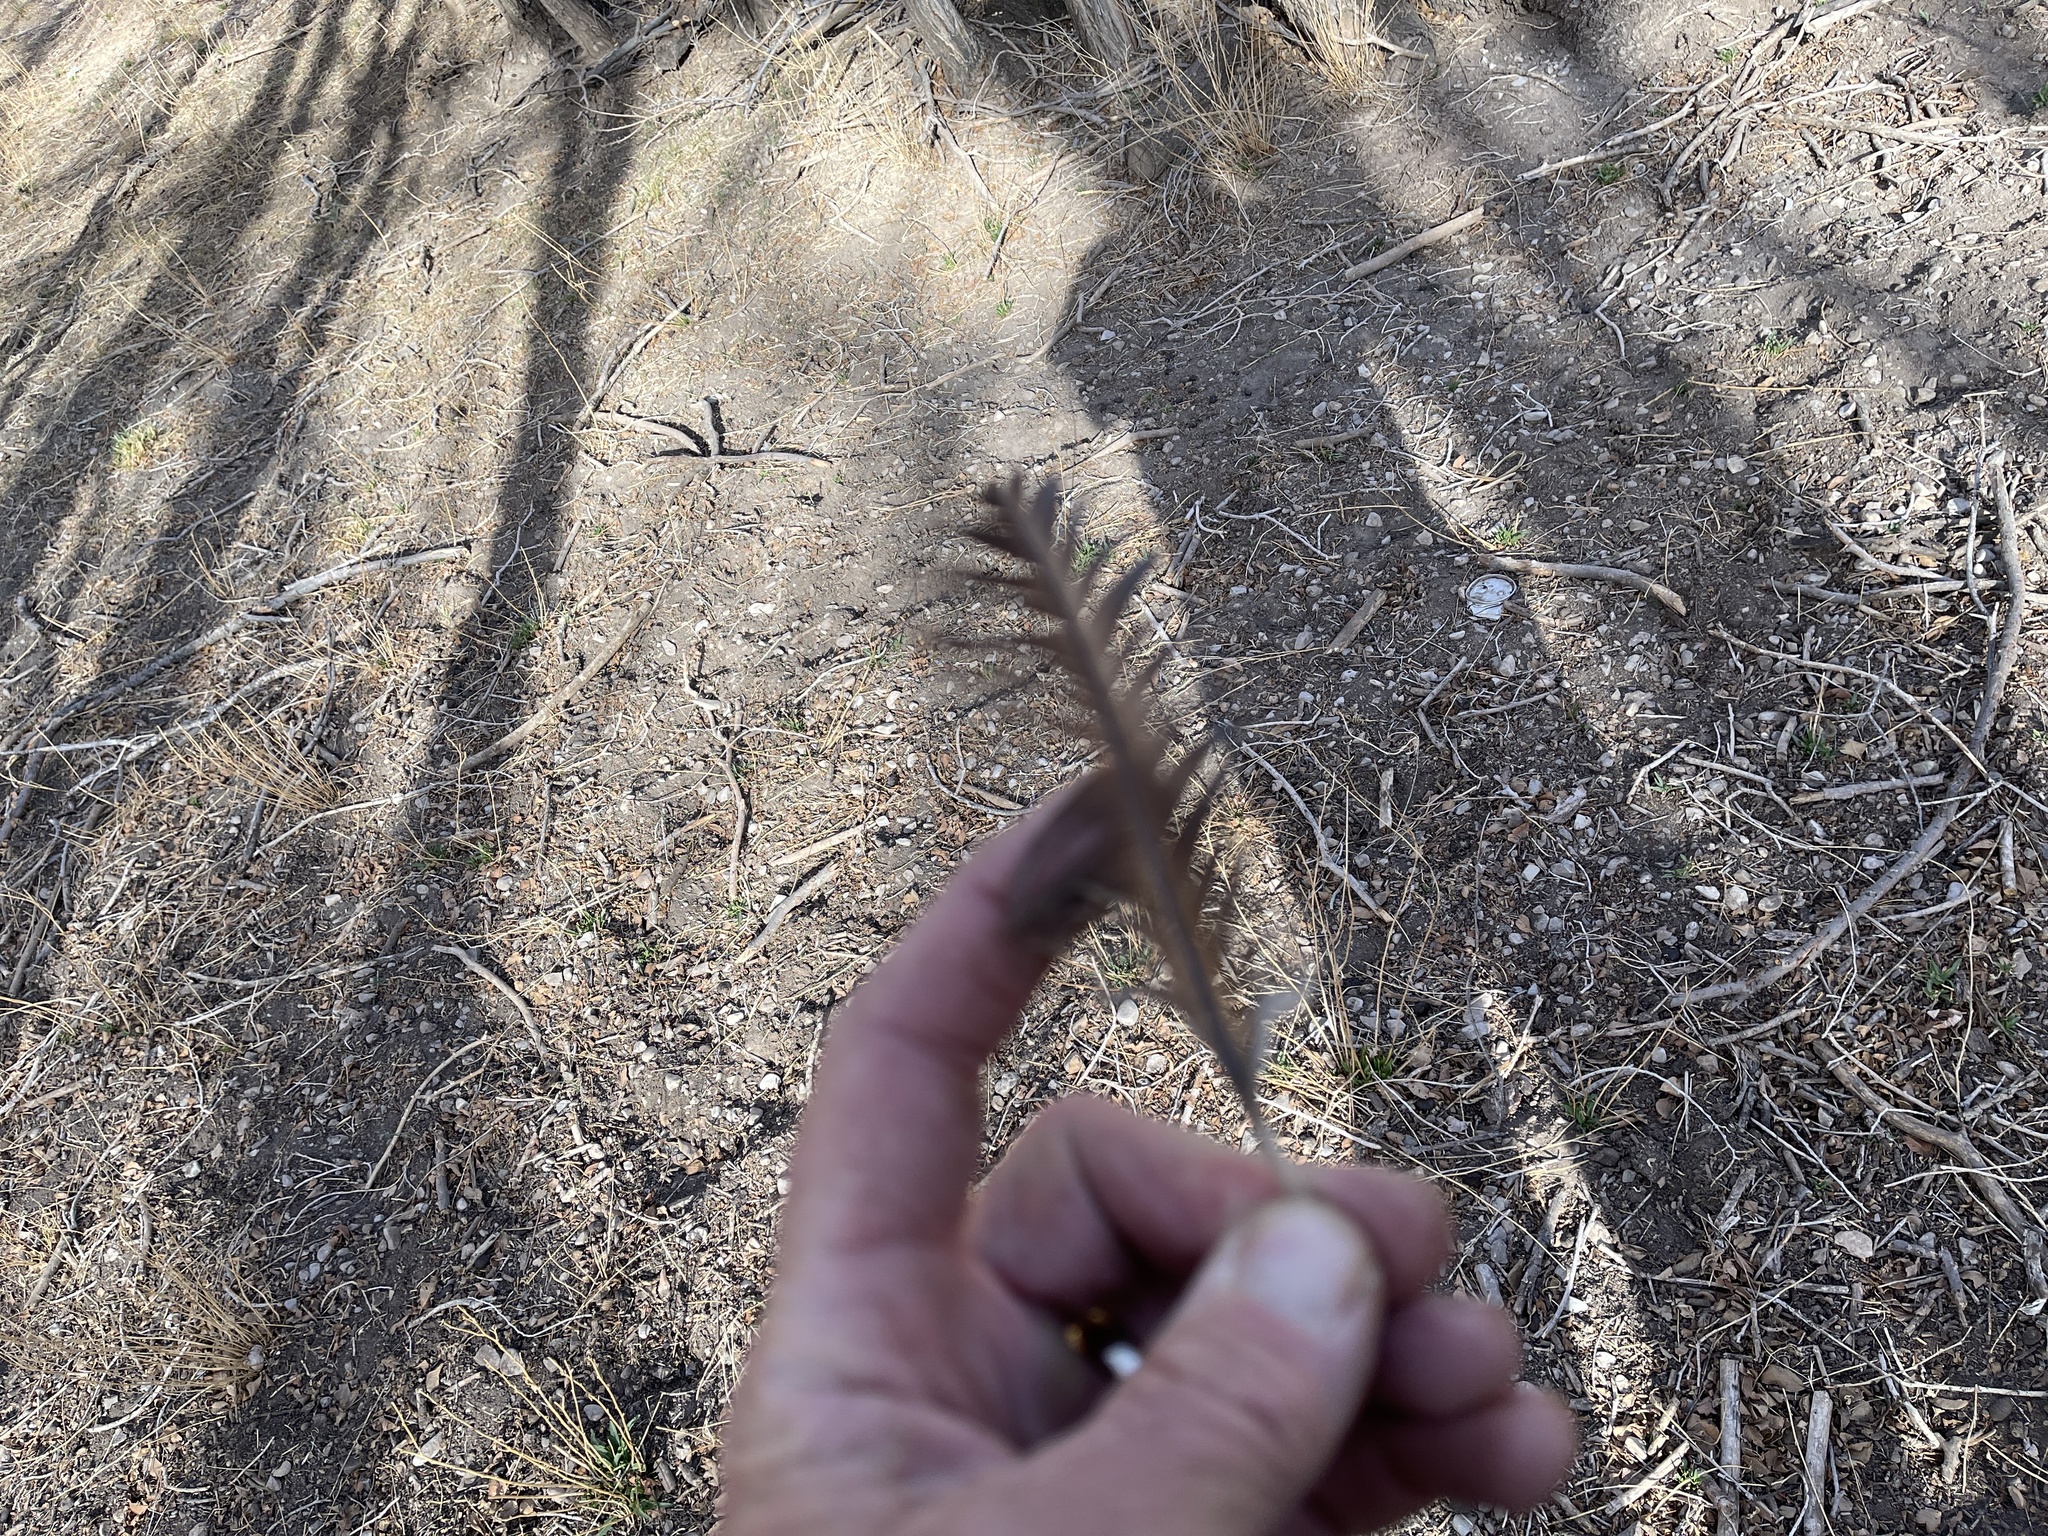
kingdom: Animalia
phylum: Chordata
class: Aves
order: Galliformes
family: Phasianidae
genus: Meleagris
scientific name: Meleagris gallopavo
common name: Wild turkey
